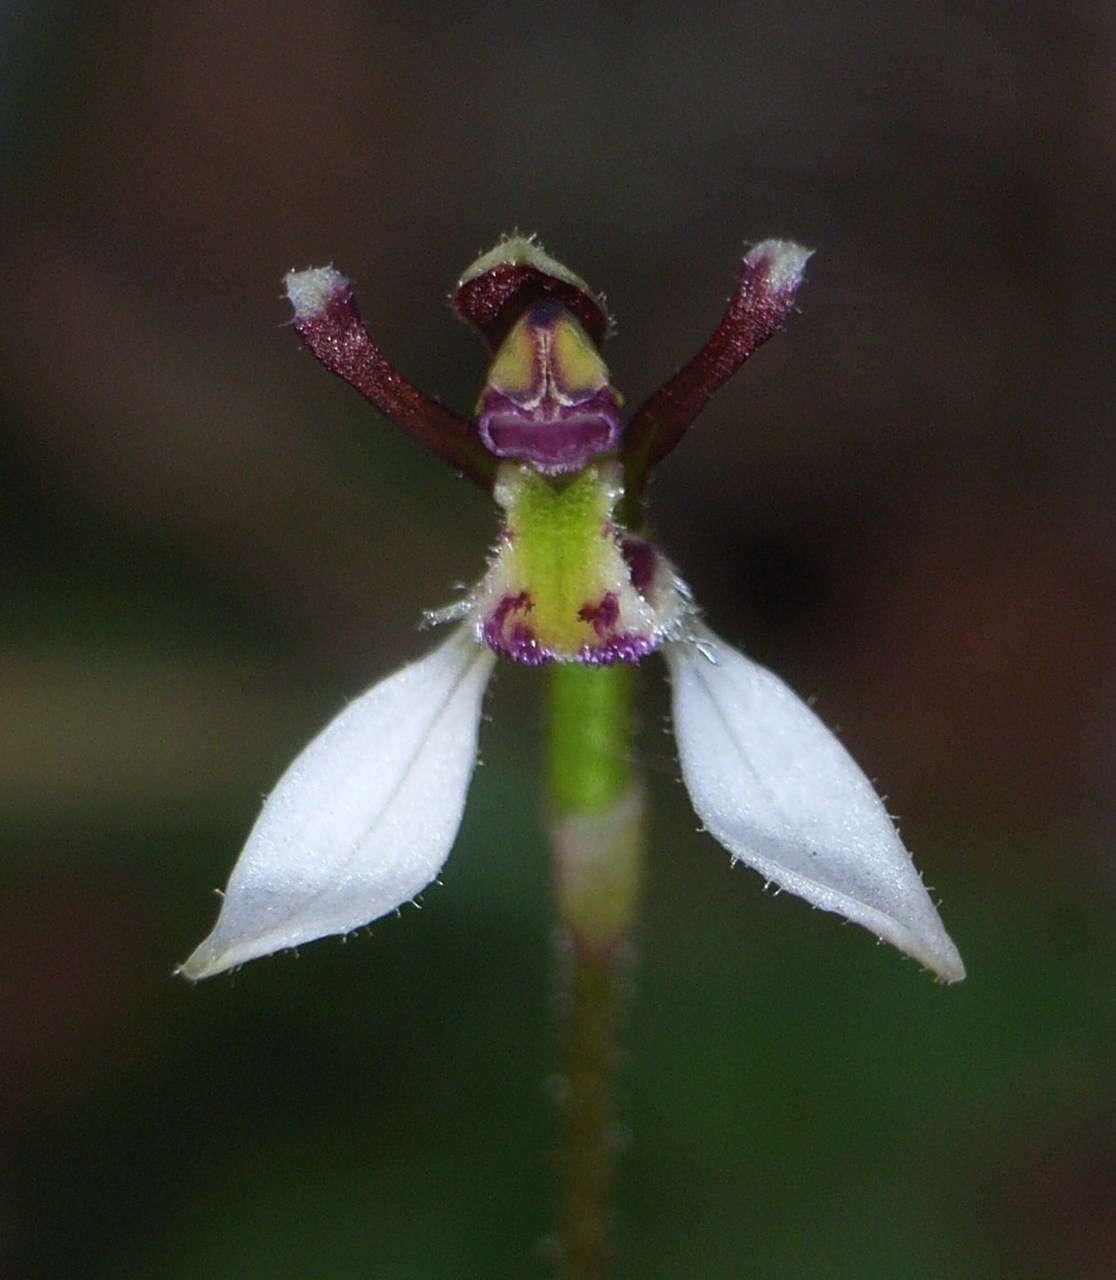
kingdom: Plantae
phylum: Tracheophyta
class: Liliopsida
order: Asparagales
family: Orchidaceae
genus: Eriochilus
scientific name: Eriochilus cucullatus
